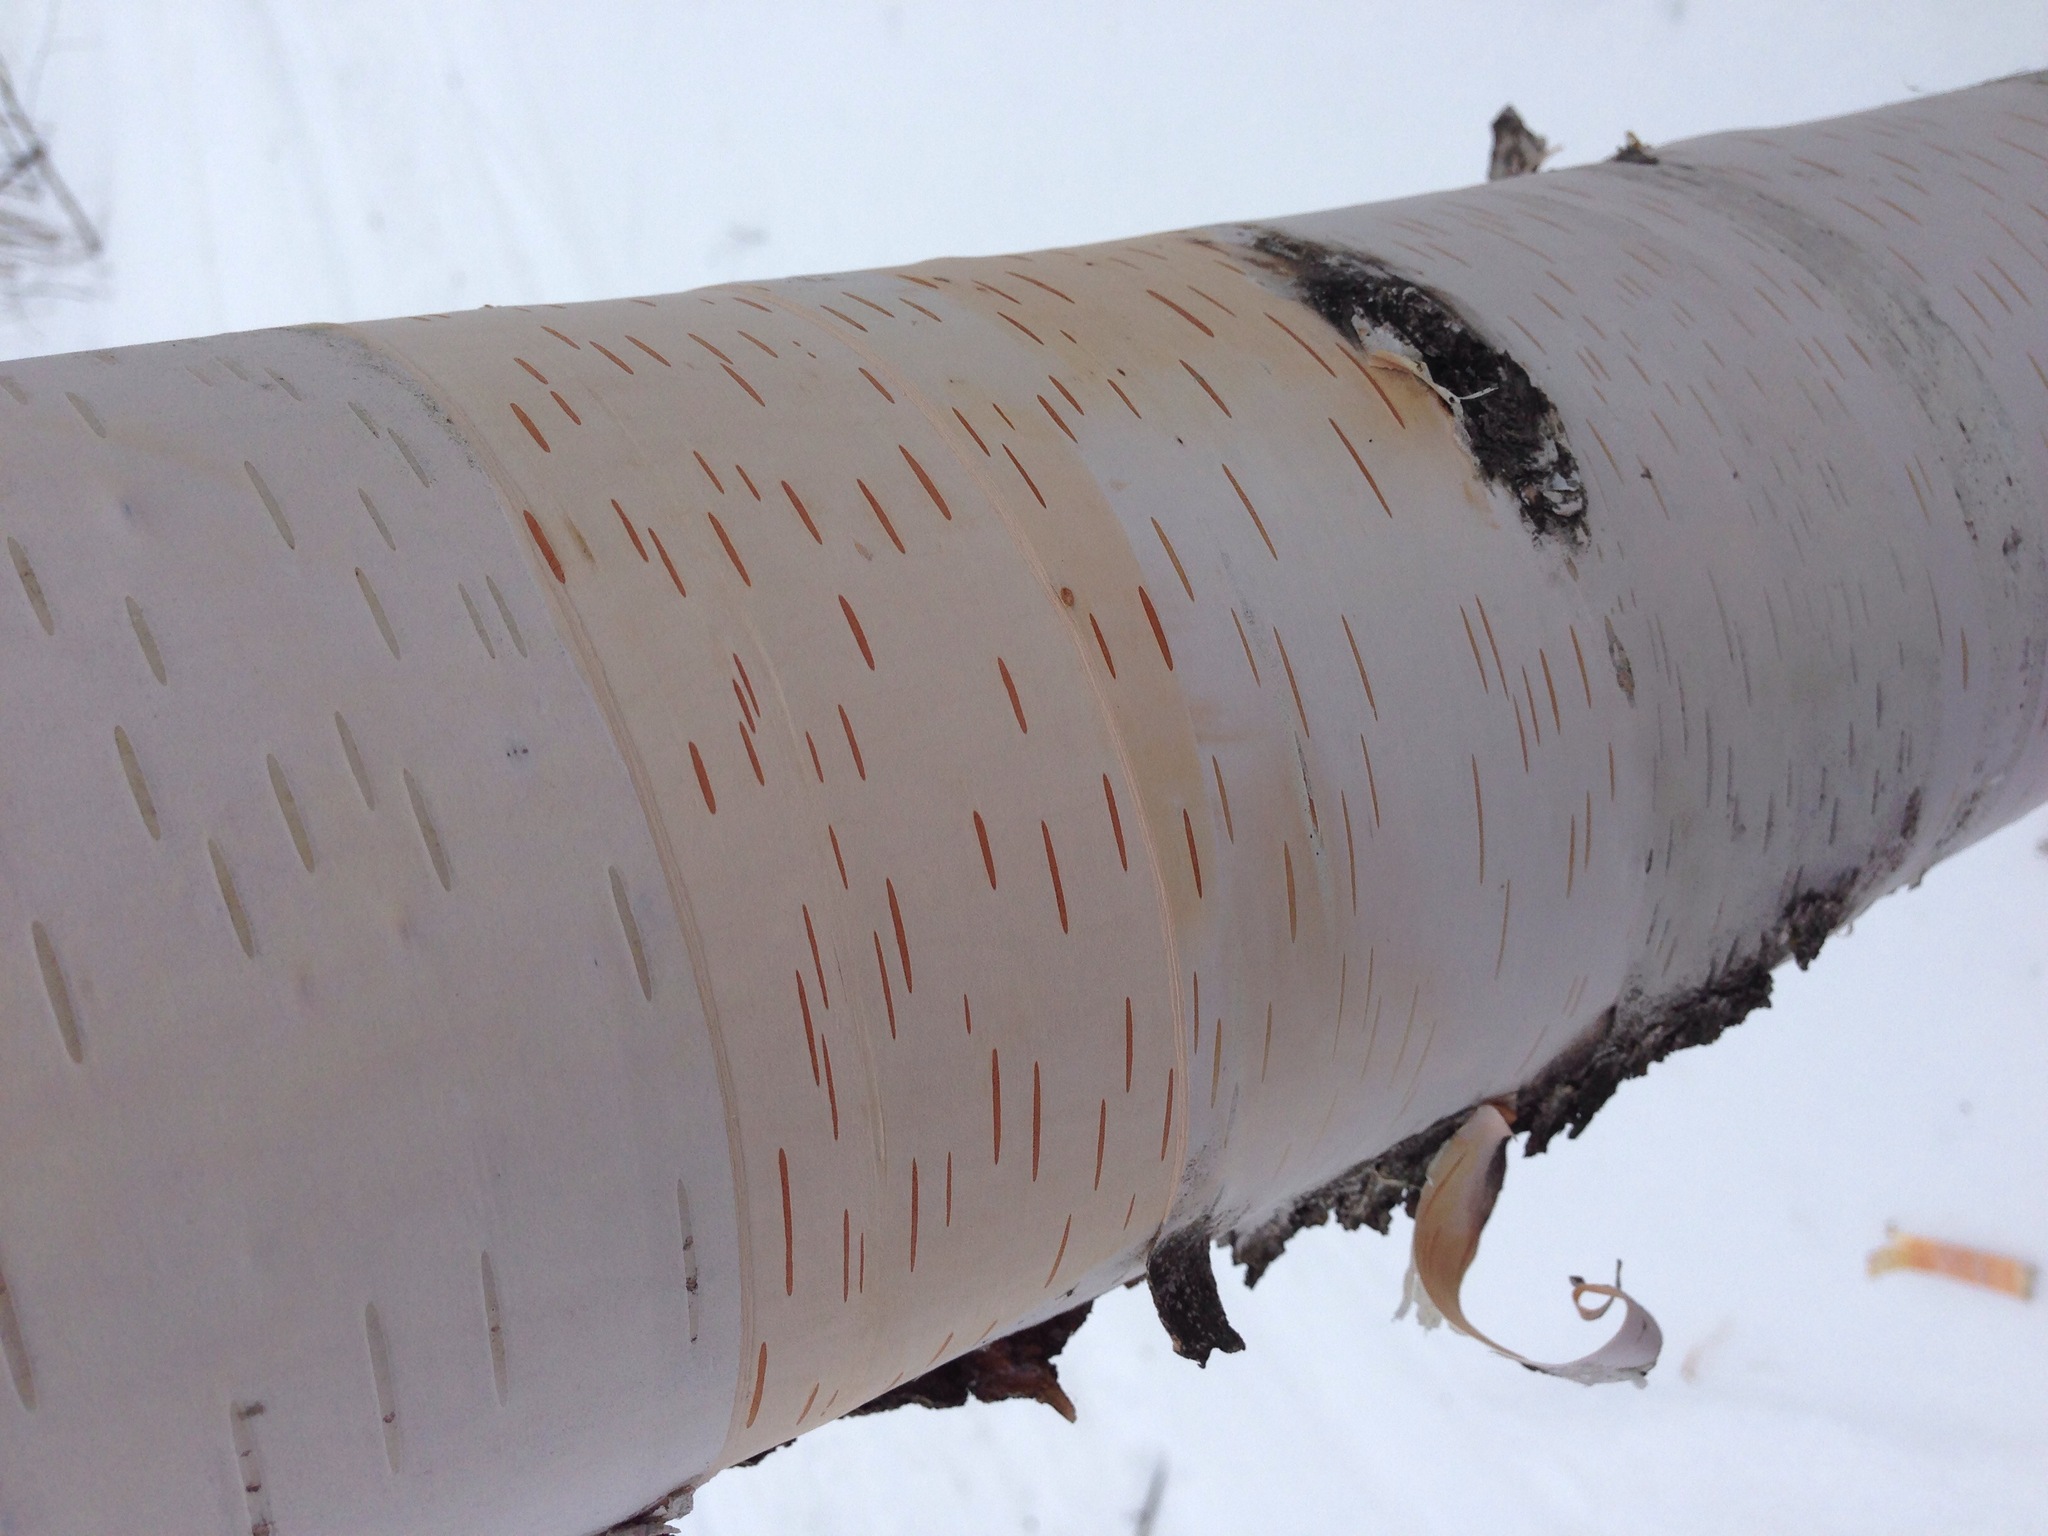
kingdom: Plantae
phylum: Tracheophyta
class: Magnoliopsida
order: Fagales
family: Betulaceae
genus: Betula
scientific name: Betula papyrifera
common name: Paper birch
